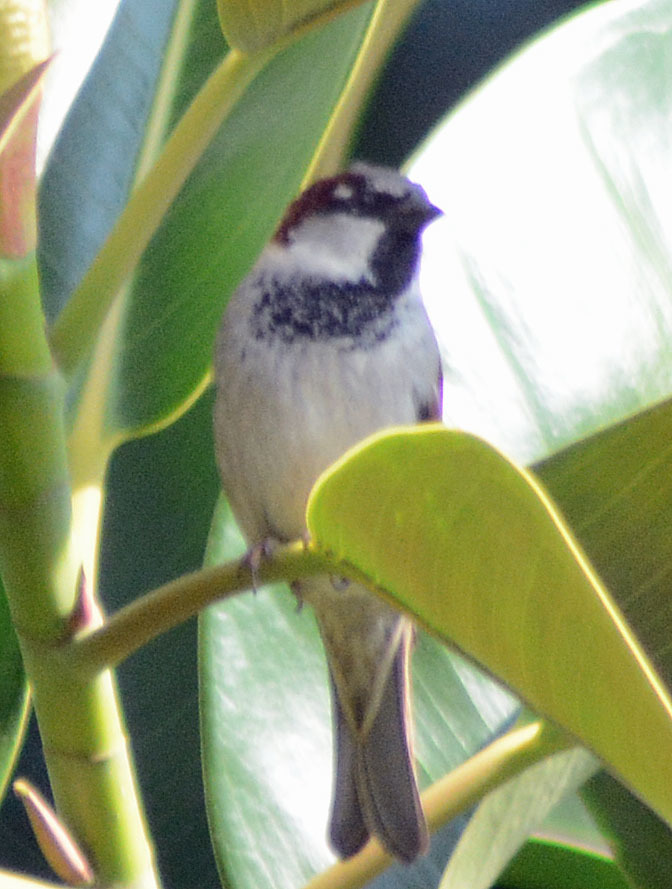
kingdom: Animalia
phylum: Chordata
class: Aves
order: Passeriformes
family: Passeridae
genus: Passer
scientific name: Passer domesticus
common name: House sparrow
